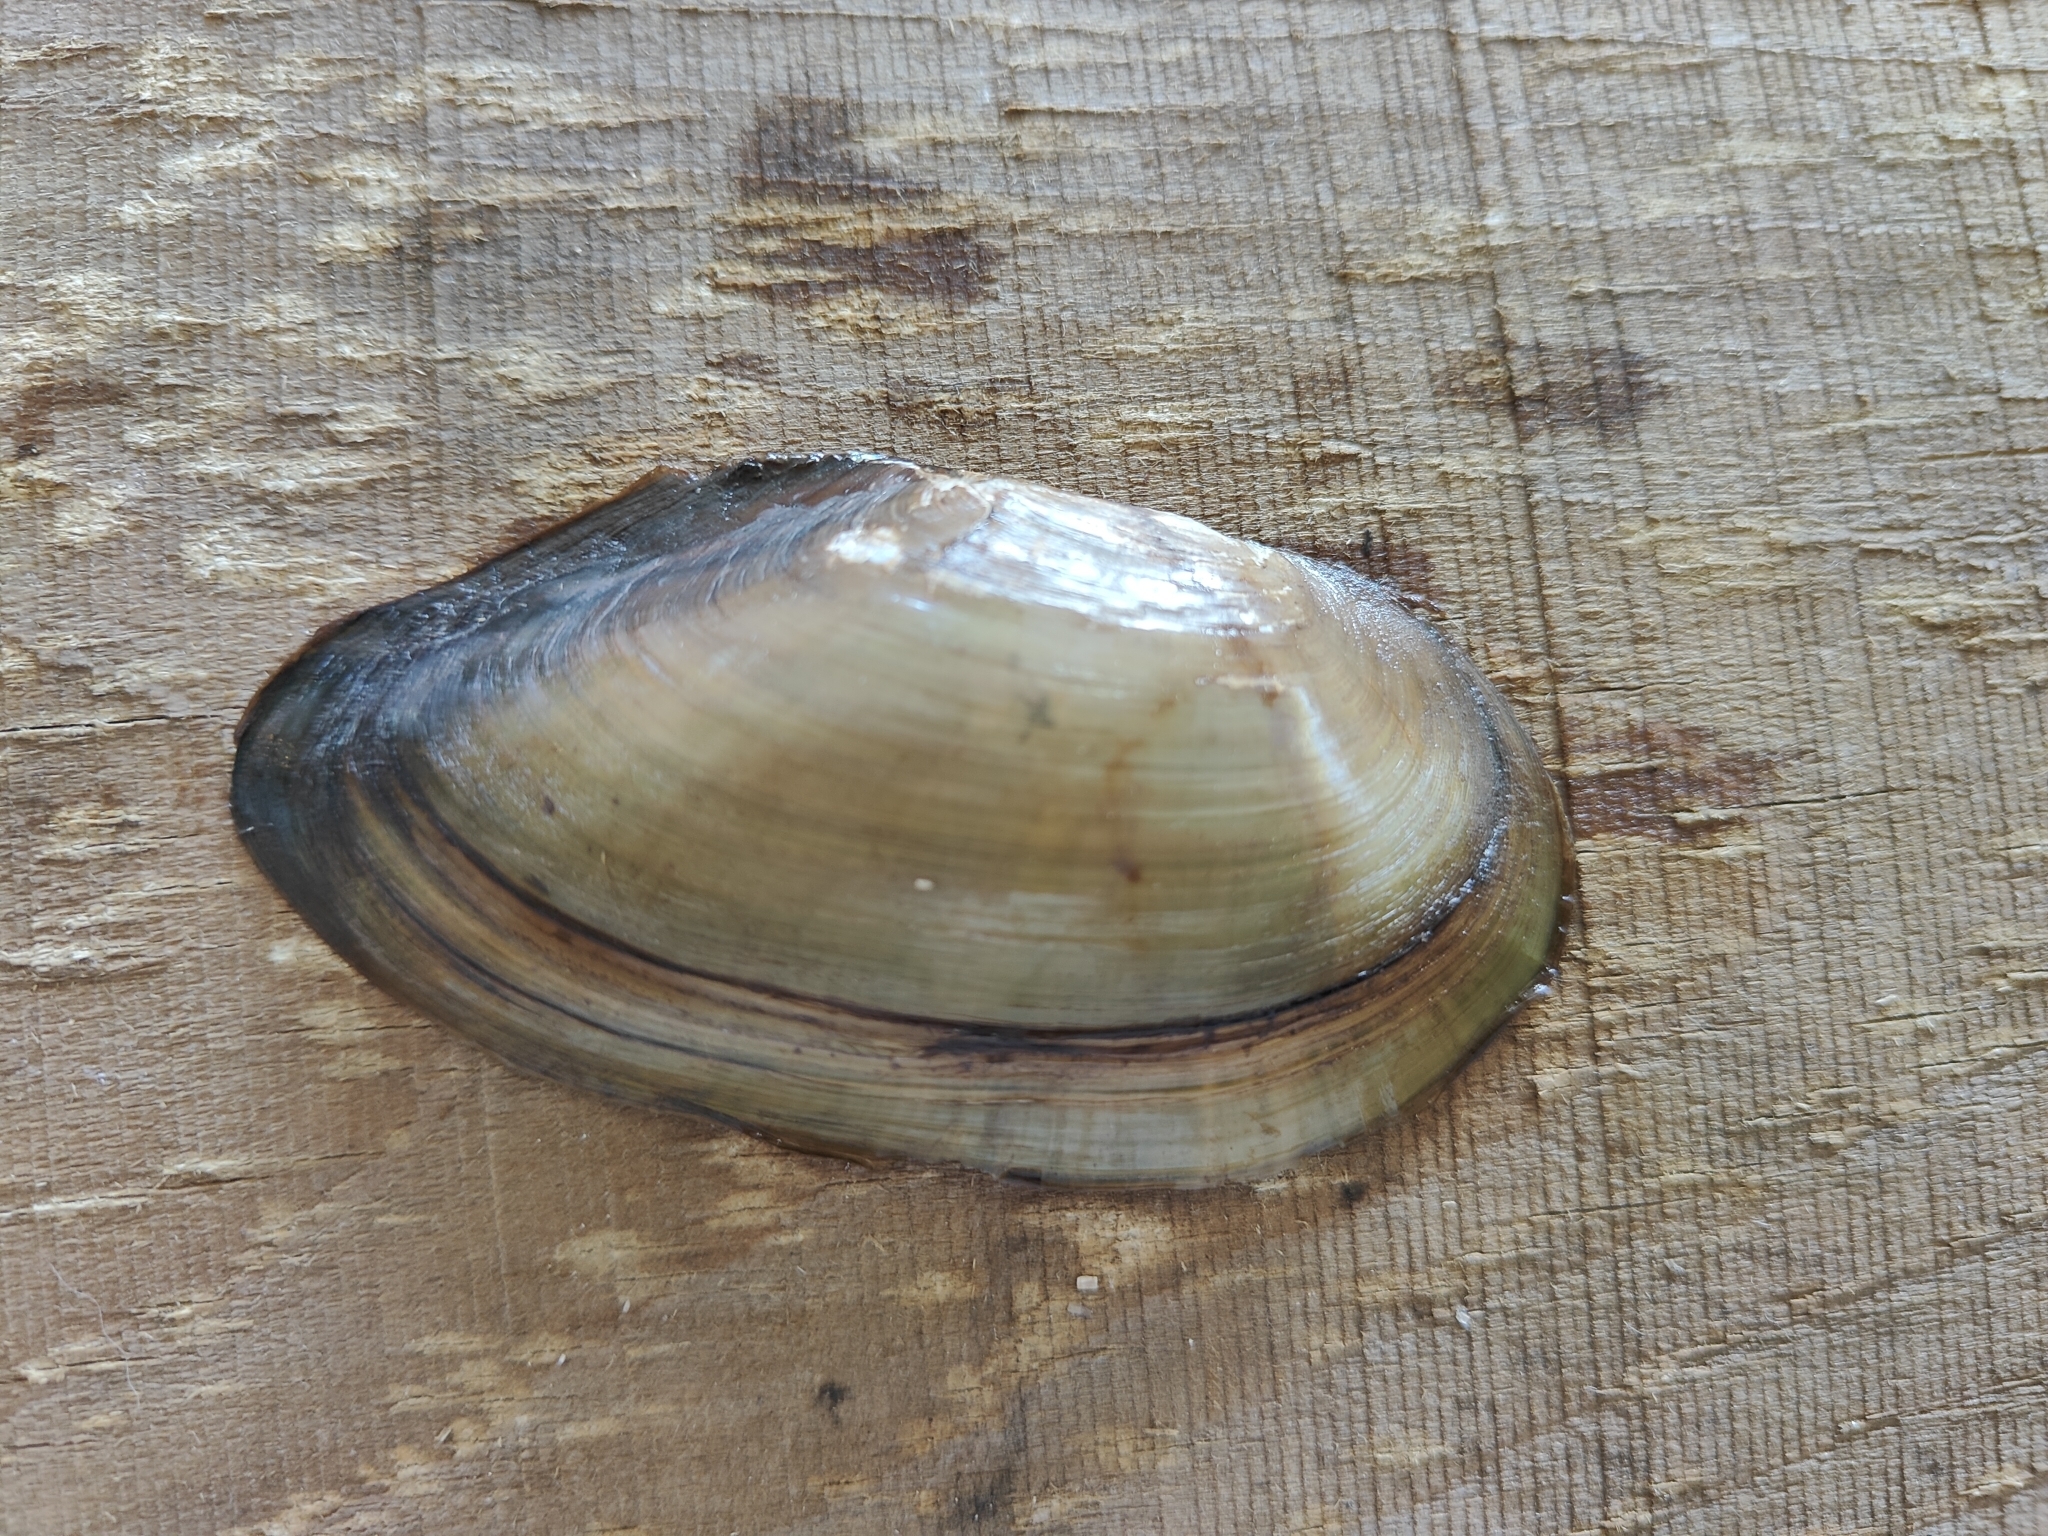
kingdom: Animalia
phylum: Mollusca
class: Bivalvia
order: Unionida
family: Unionidae
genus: Utterbackia
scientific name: Utterbackia imbecillis
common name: Paper pondshell
